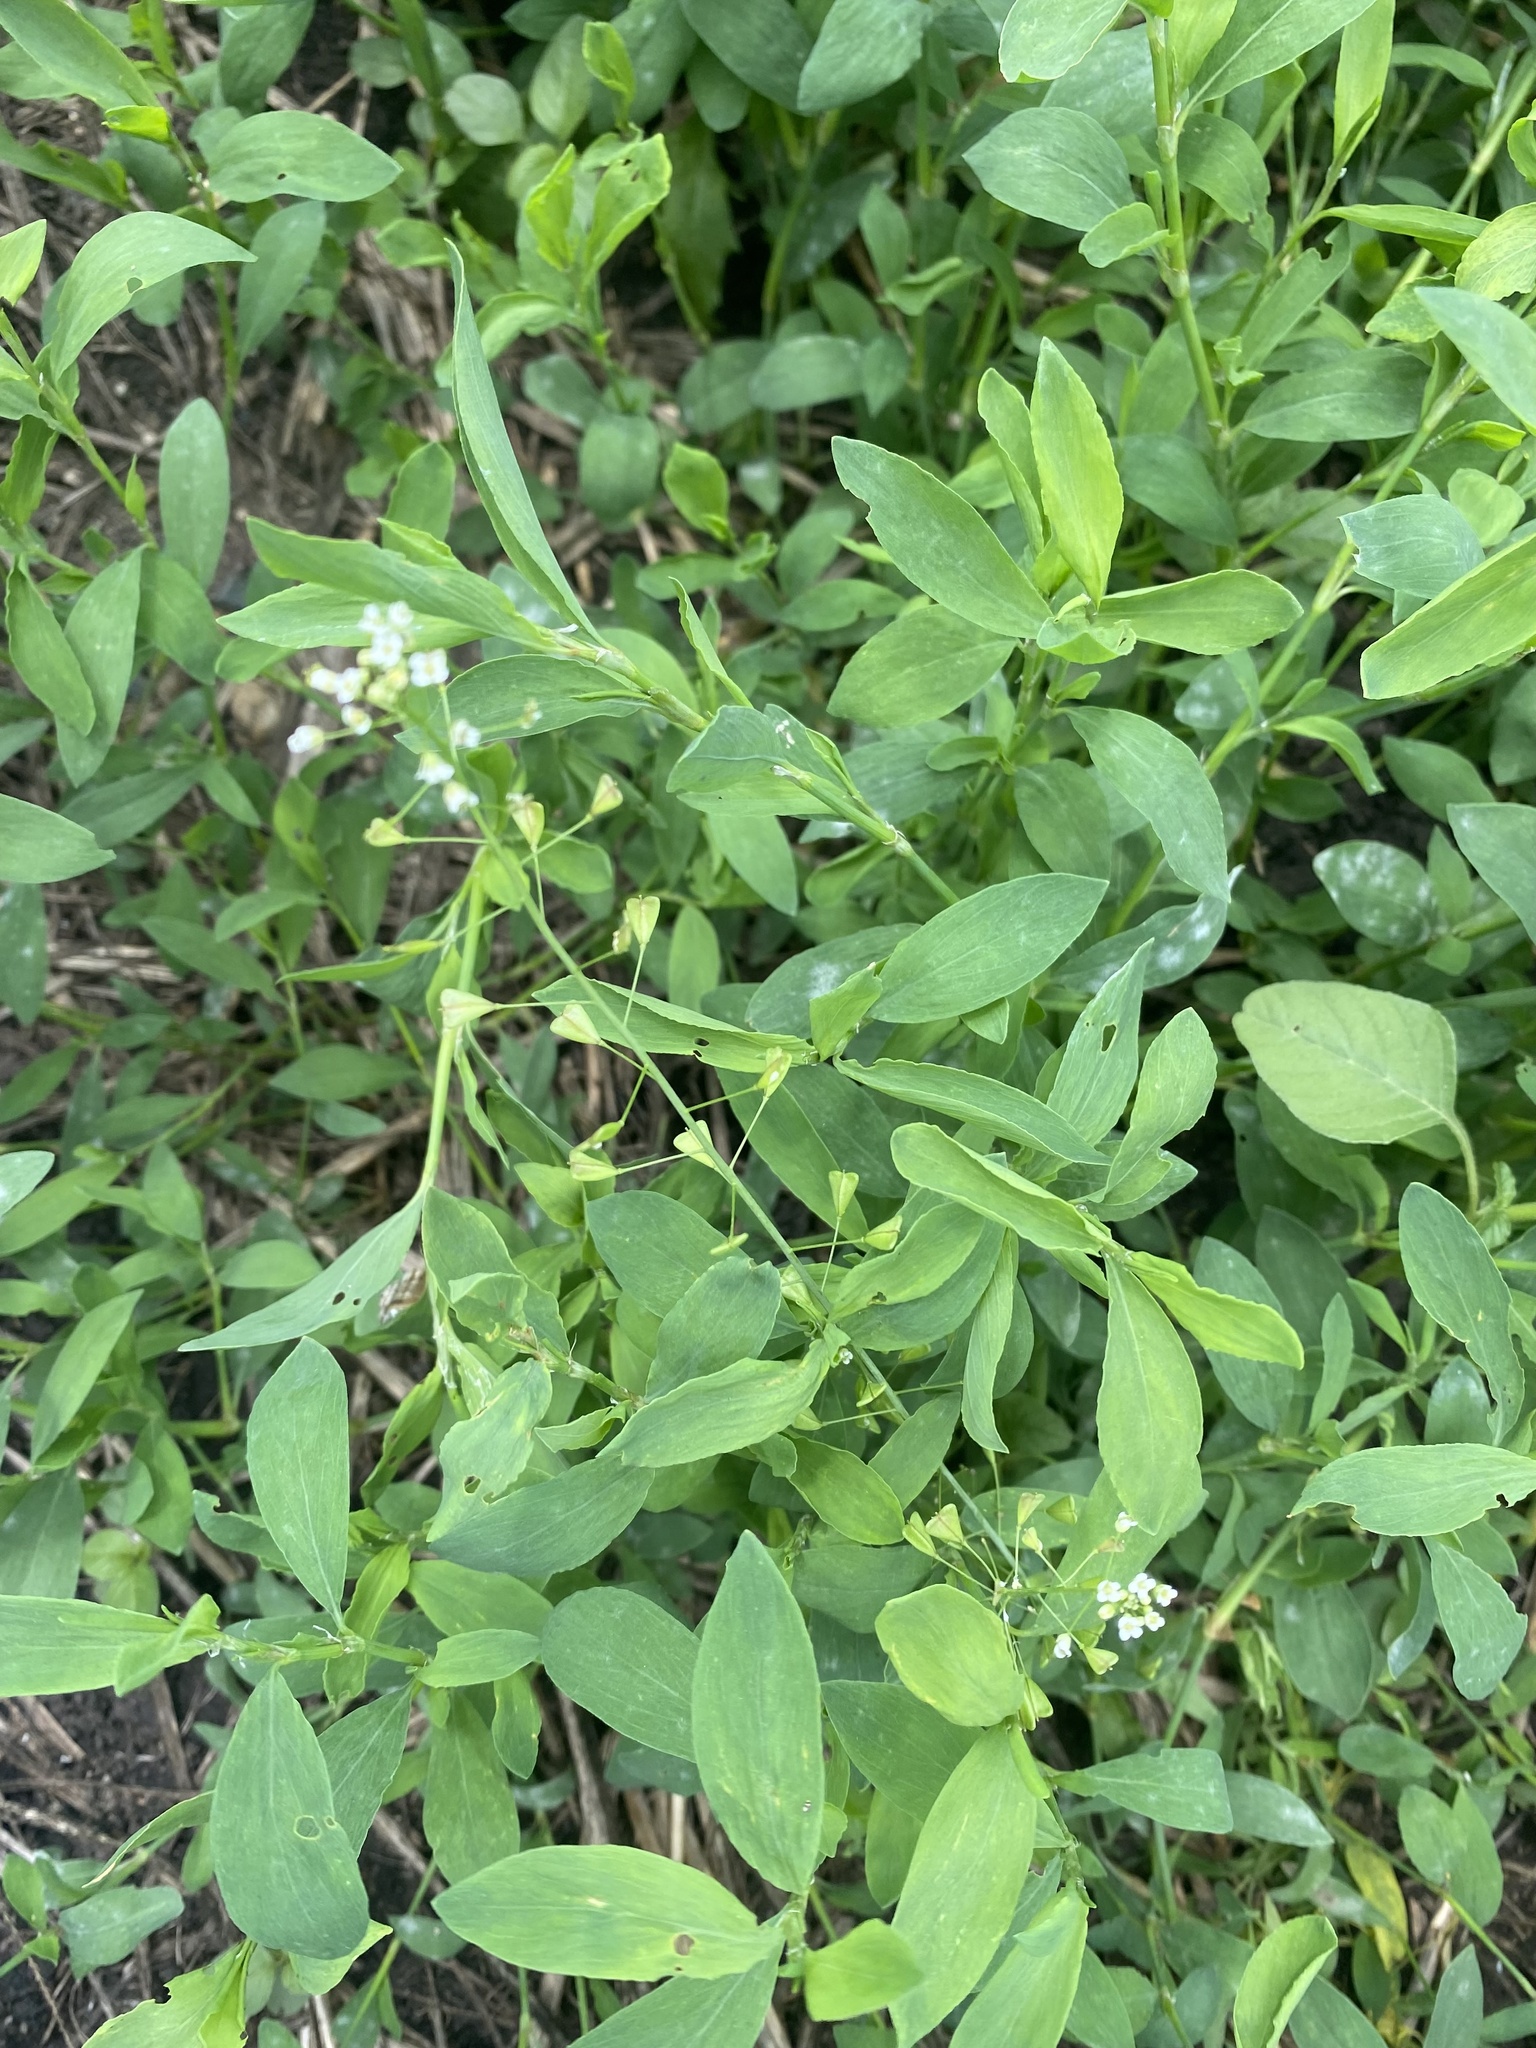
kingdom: Plantae
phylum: Tracheophyta
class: Magnoliopsida
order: Brassicales
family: Brassicaceae
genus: Capsella
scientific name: Capsella bursa-pastoris
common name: Shepherd's purse
